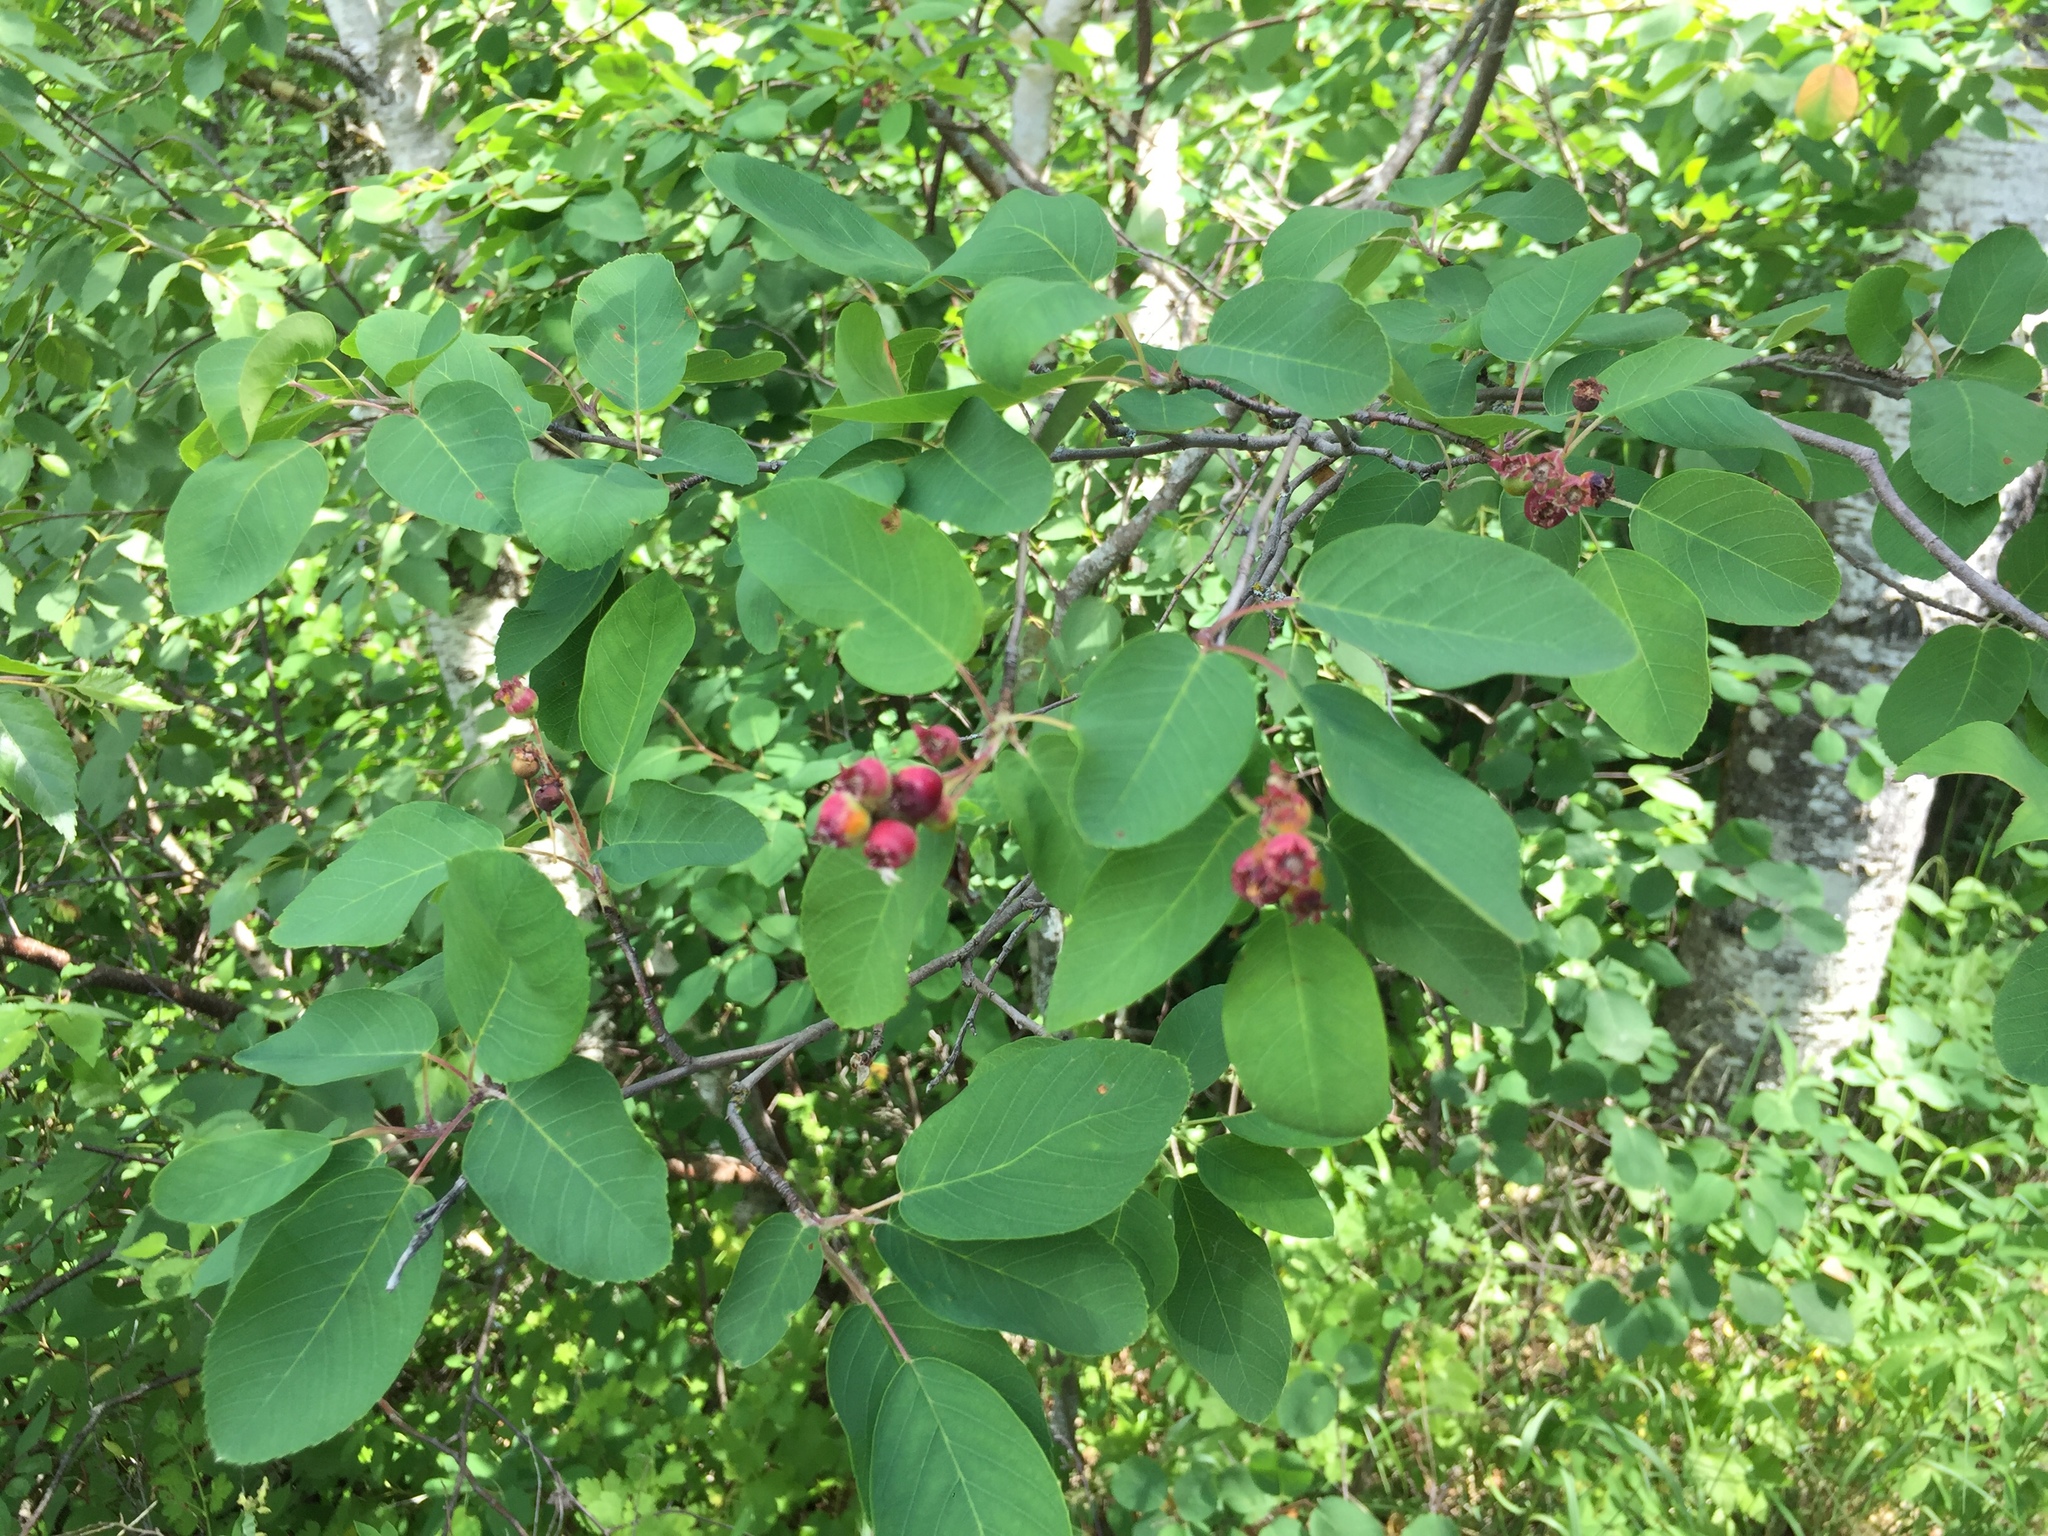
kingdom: Plantae
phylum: Tracheophyta
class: Magnoliopsida
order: Rosales
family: Rosaceae
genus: Amelanchier
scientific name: Amelanchier alnifolia
